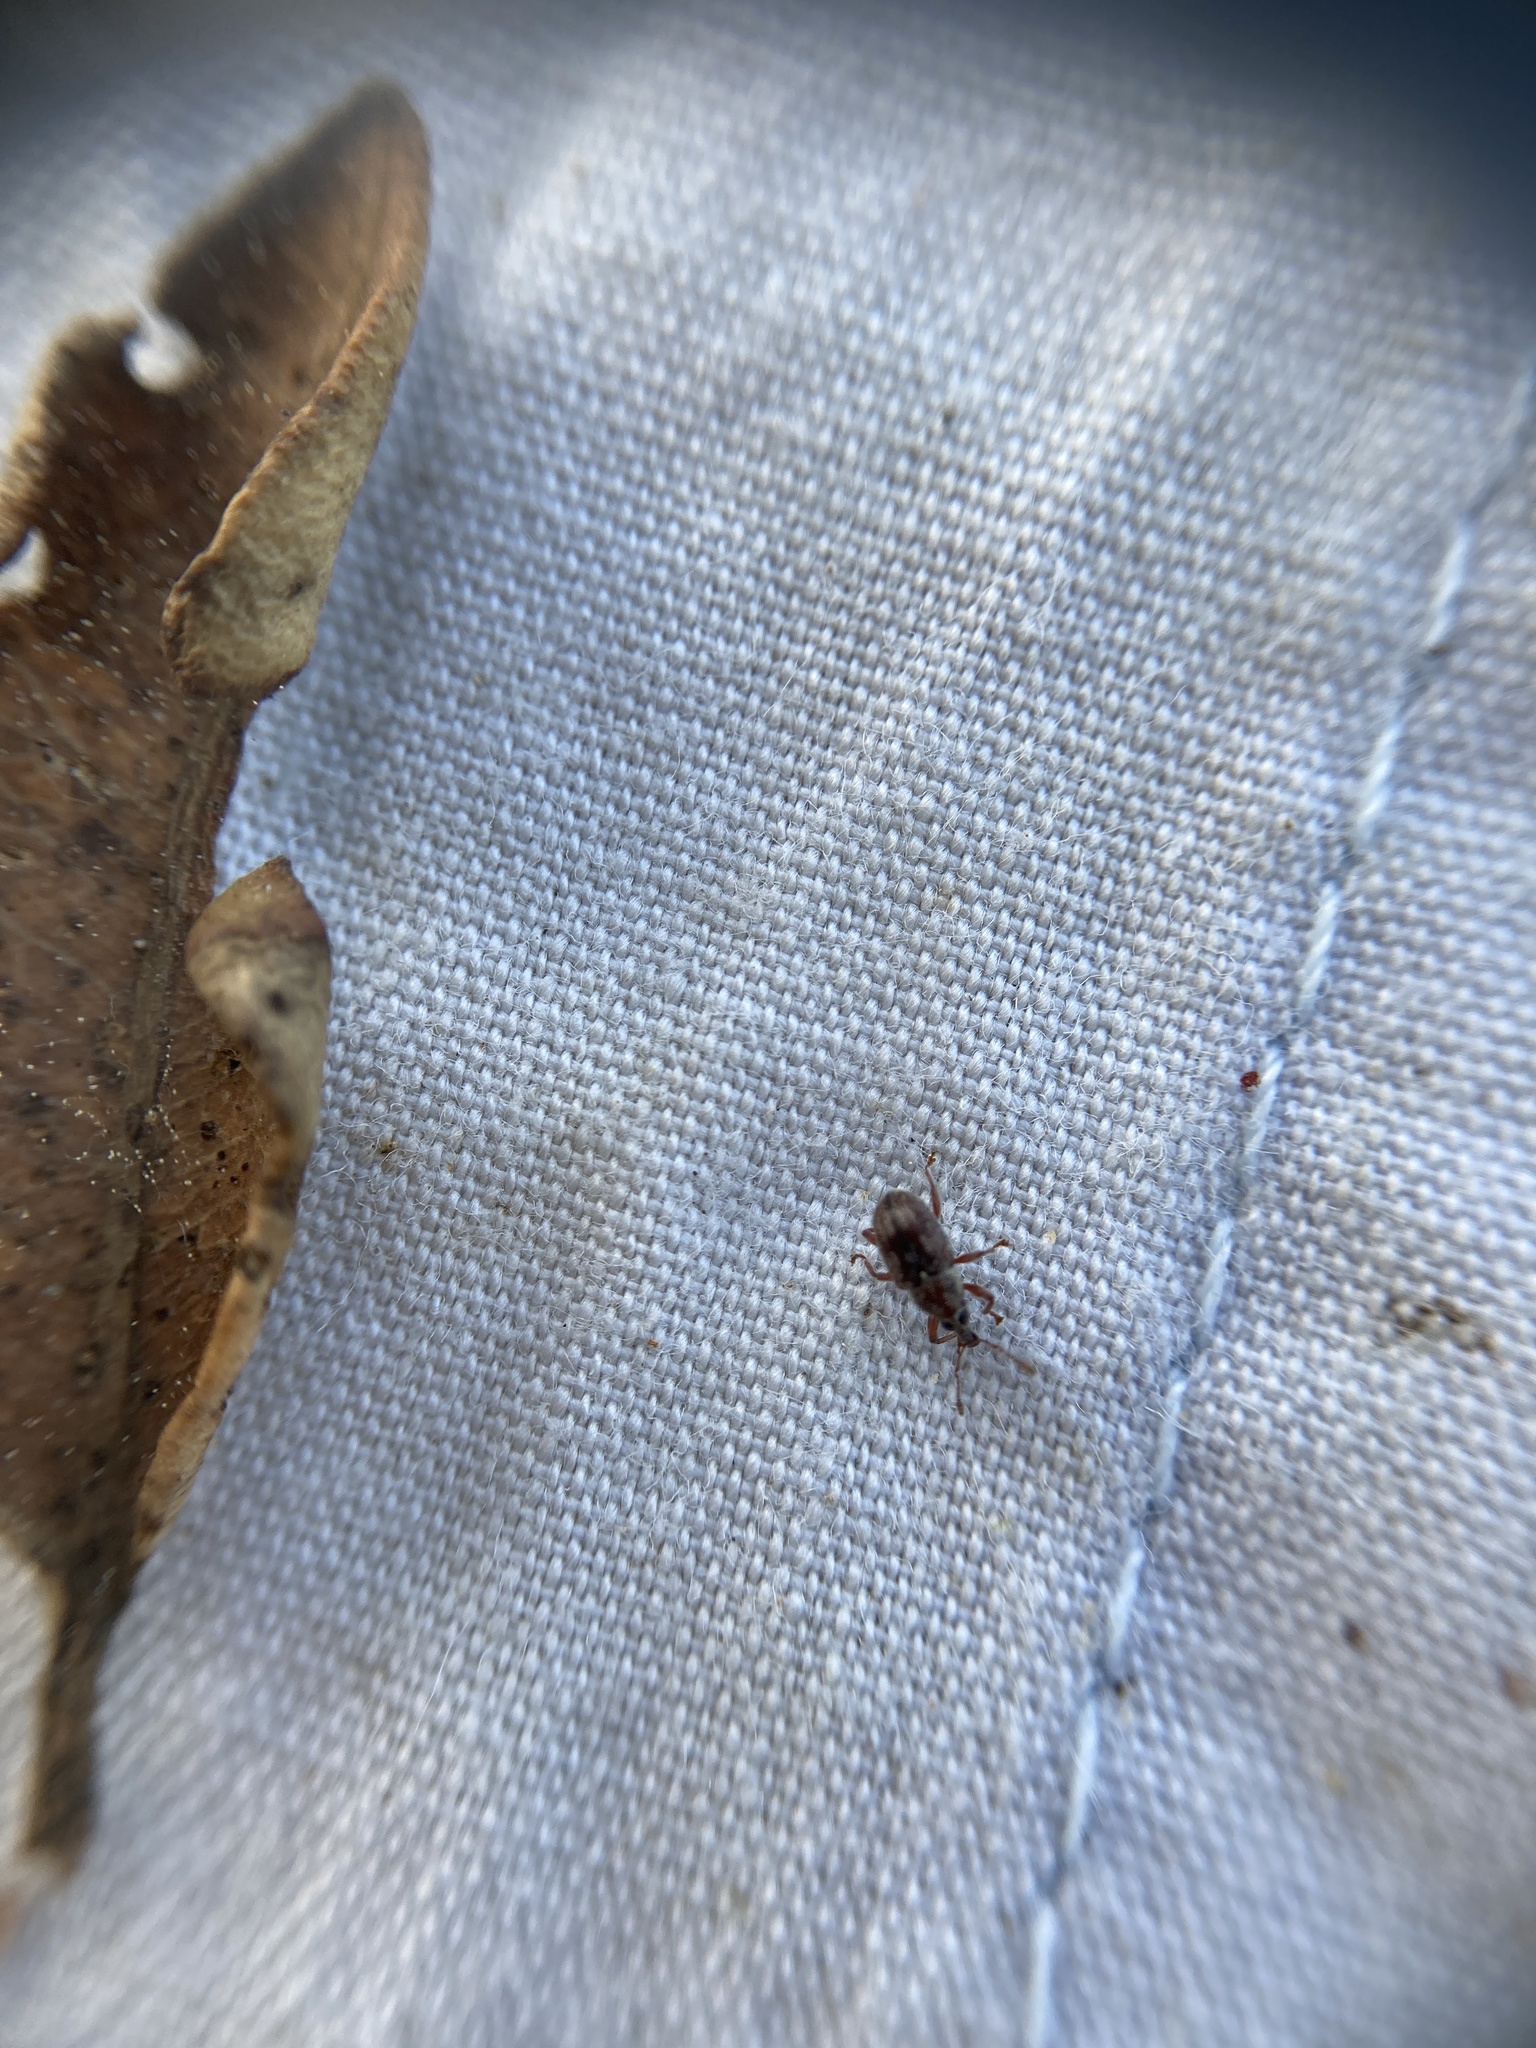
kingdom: Animalia
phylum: Arthropoda
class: Insecta
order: Coleoptera
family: Curculionidae
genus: Neomycta
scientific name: Neomycta rubida
